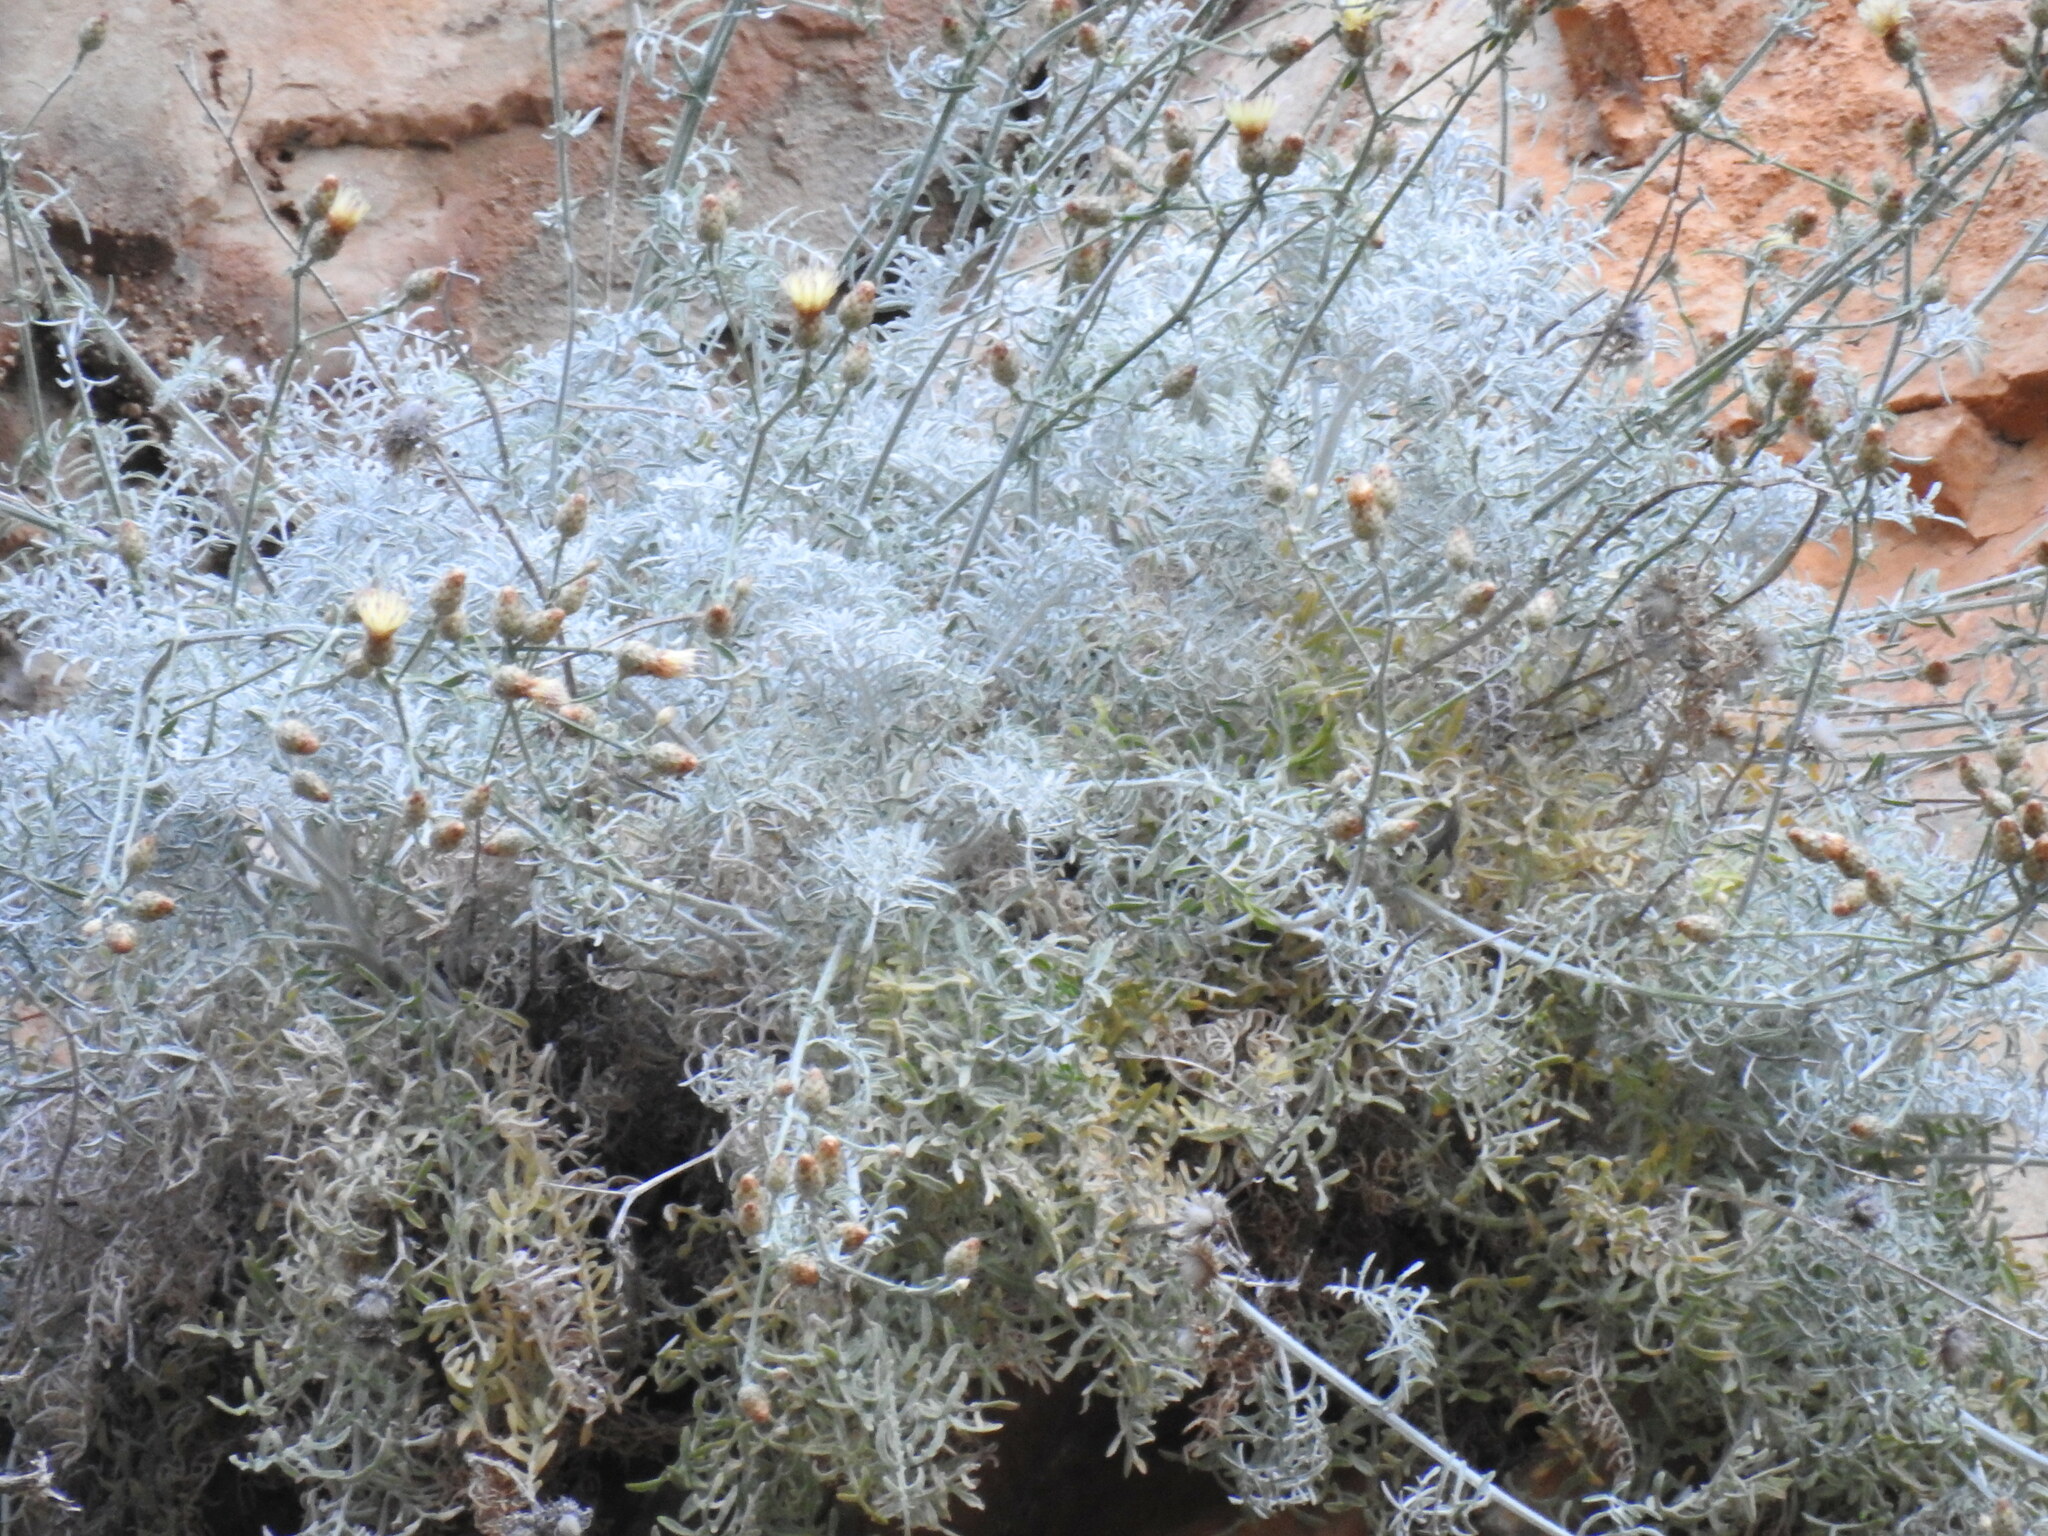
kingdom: Plantae
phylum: Tracheophyta
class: Magnoliopsida
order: Asterales
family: Asteraceae
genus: Centaurea
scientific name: Centaurea argentea
